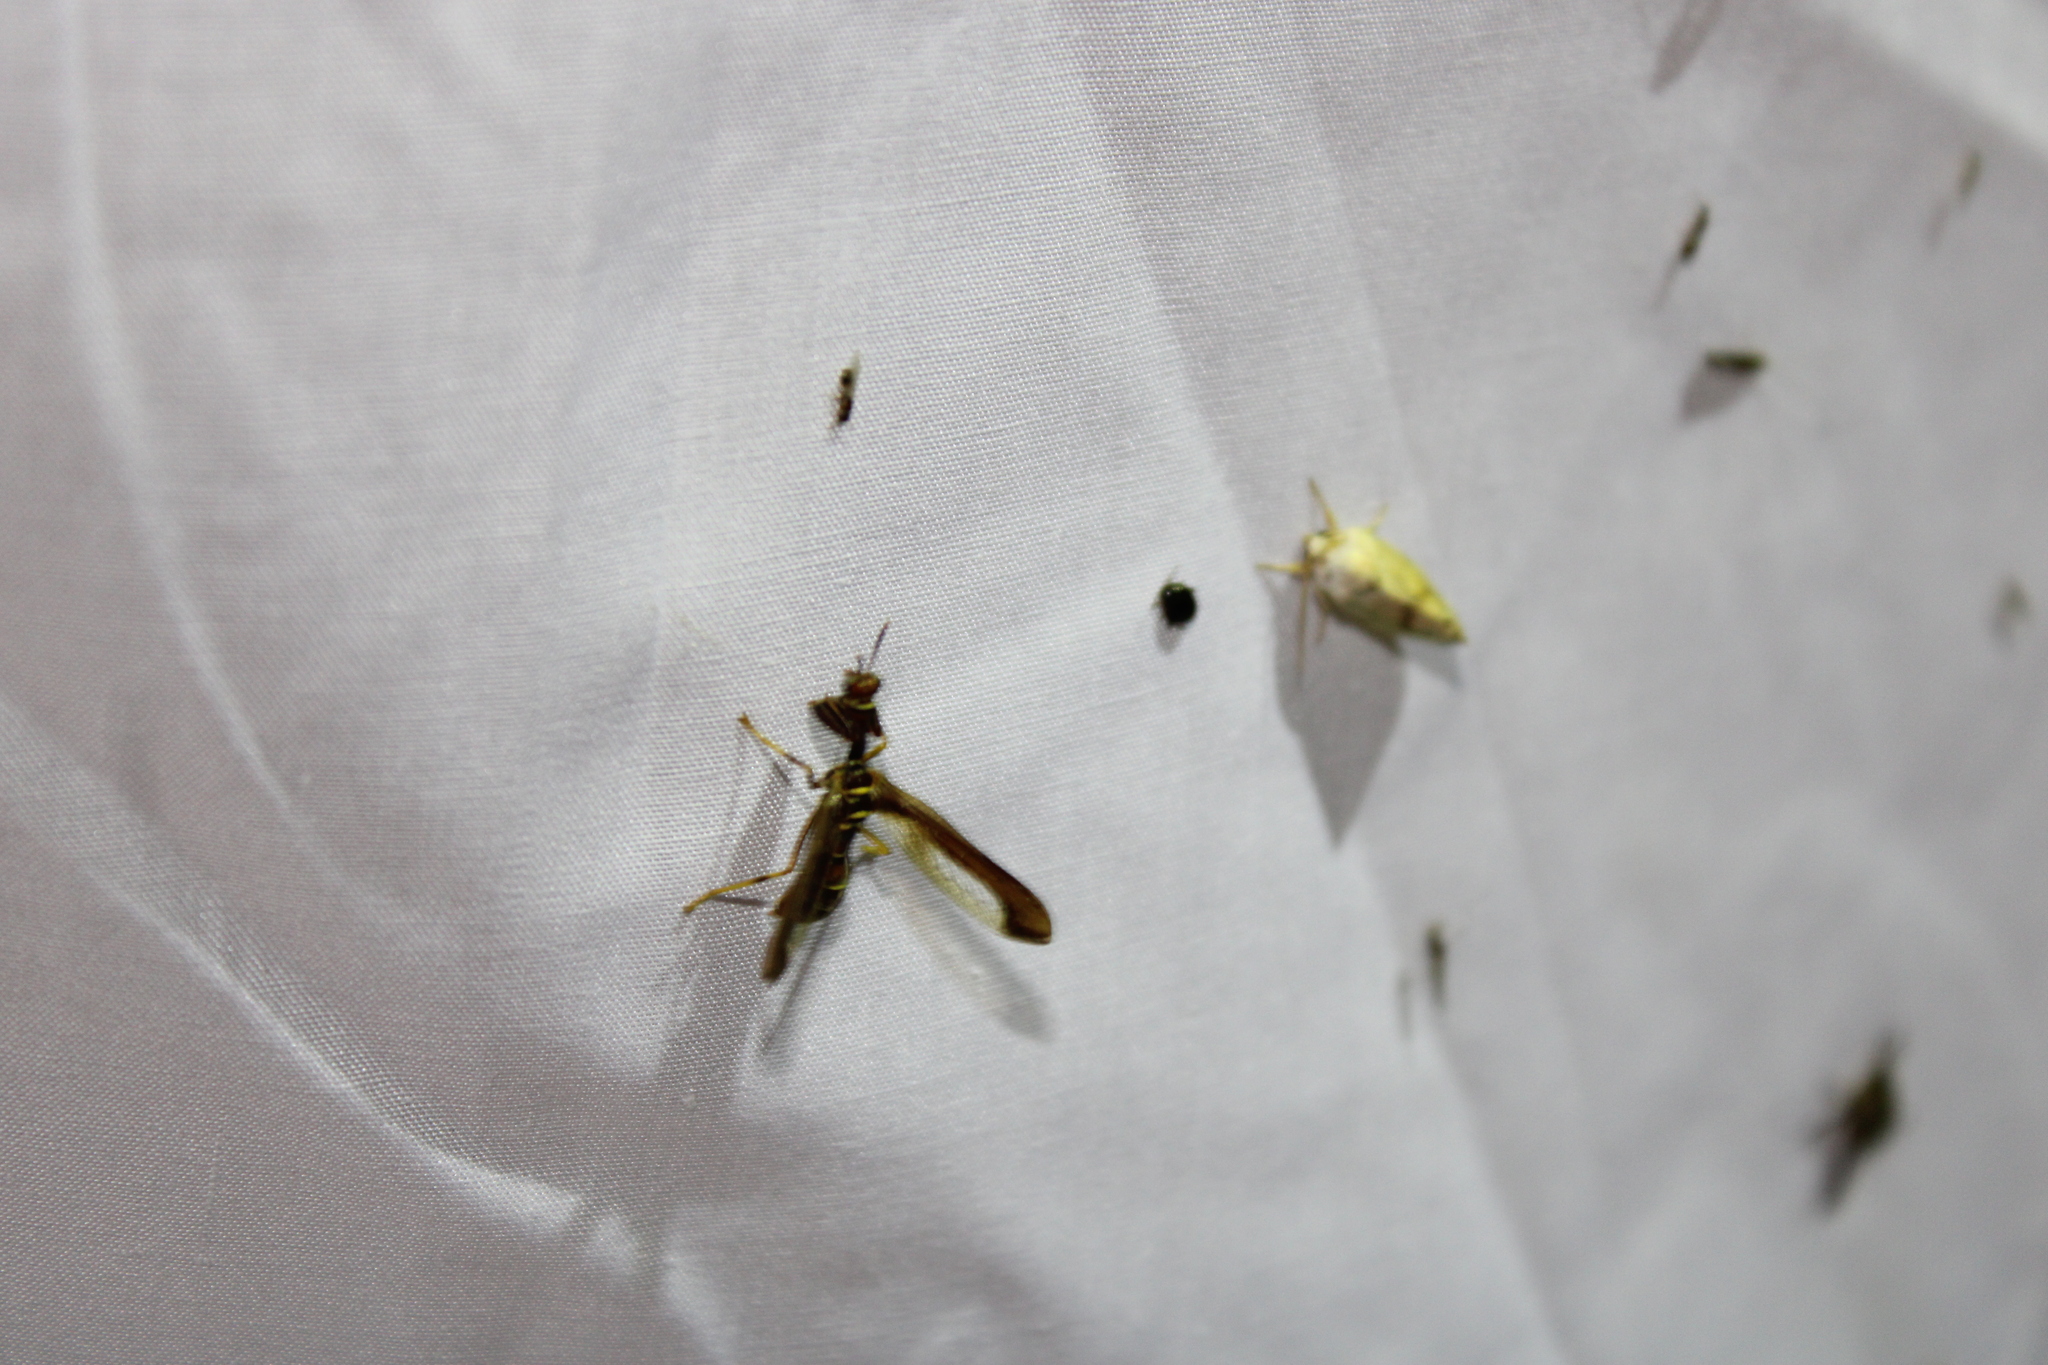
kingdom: Animalia
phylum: Arthropoda
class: Insecta
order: Neuroptera
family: Mantispidae
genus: Climaciella
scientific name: Climaciella brunnea
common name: Brown wasp mantidfly
